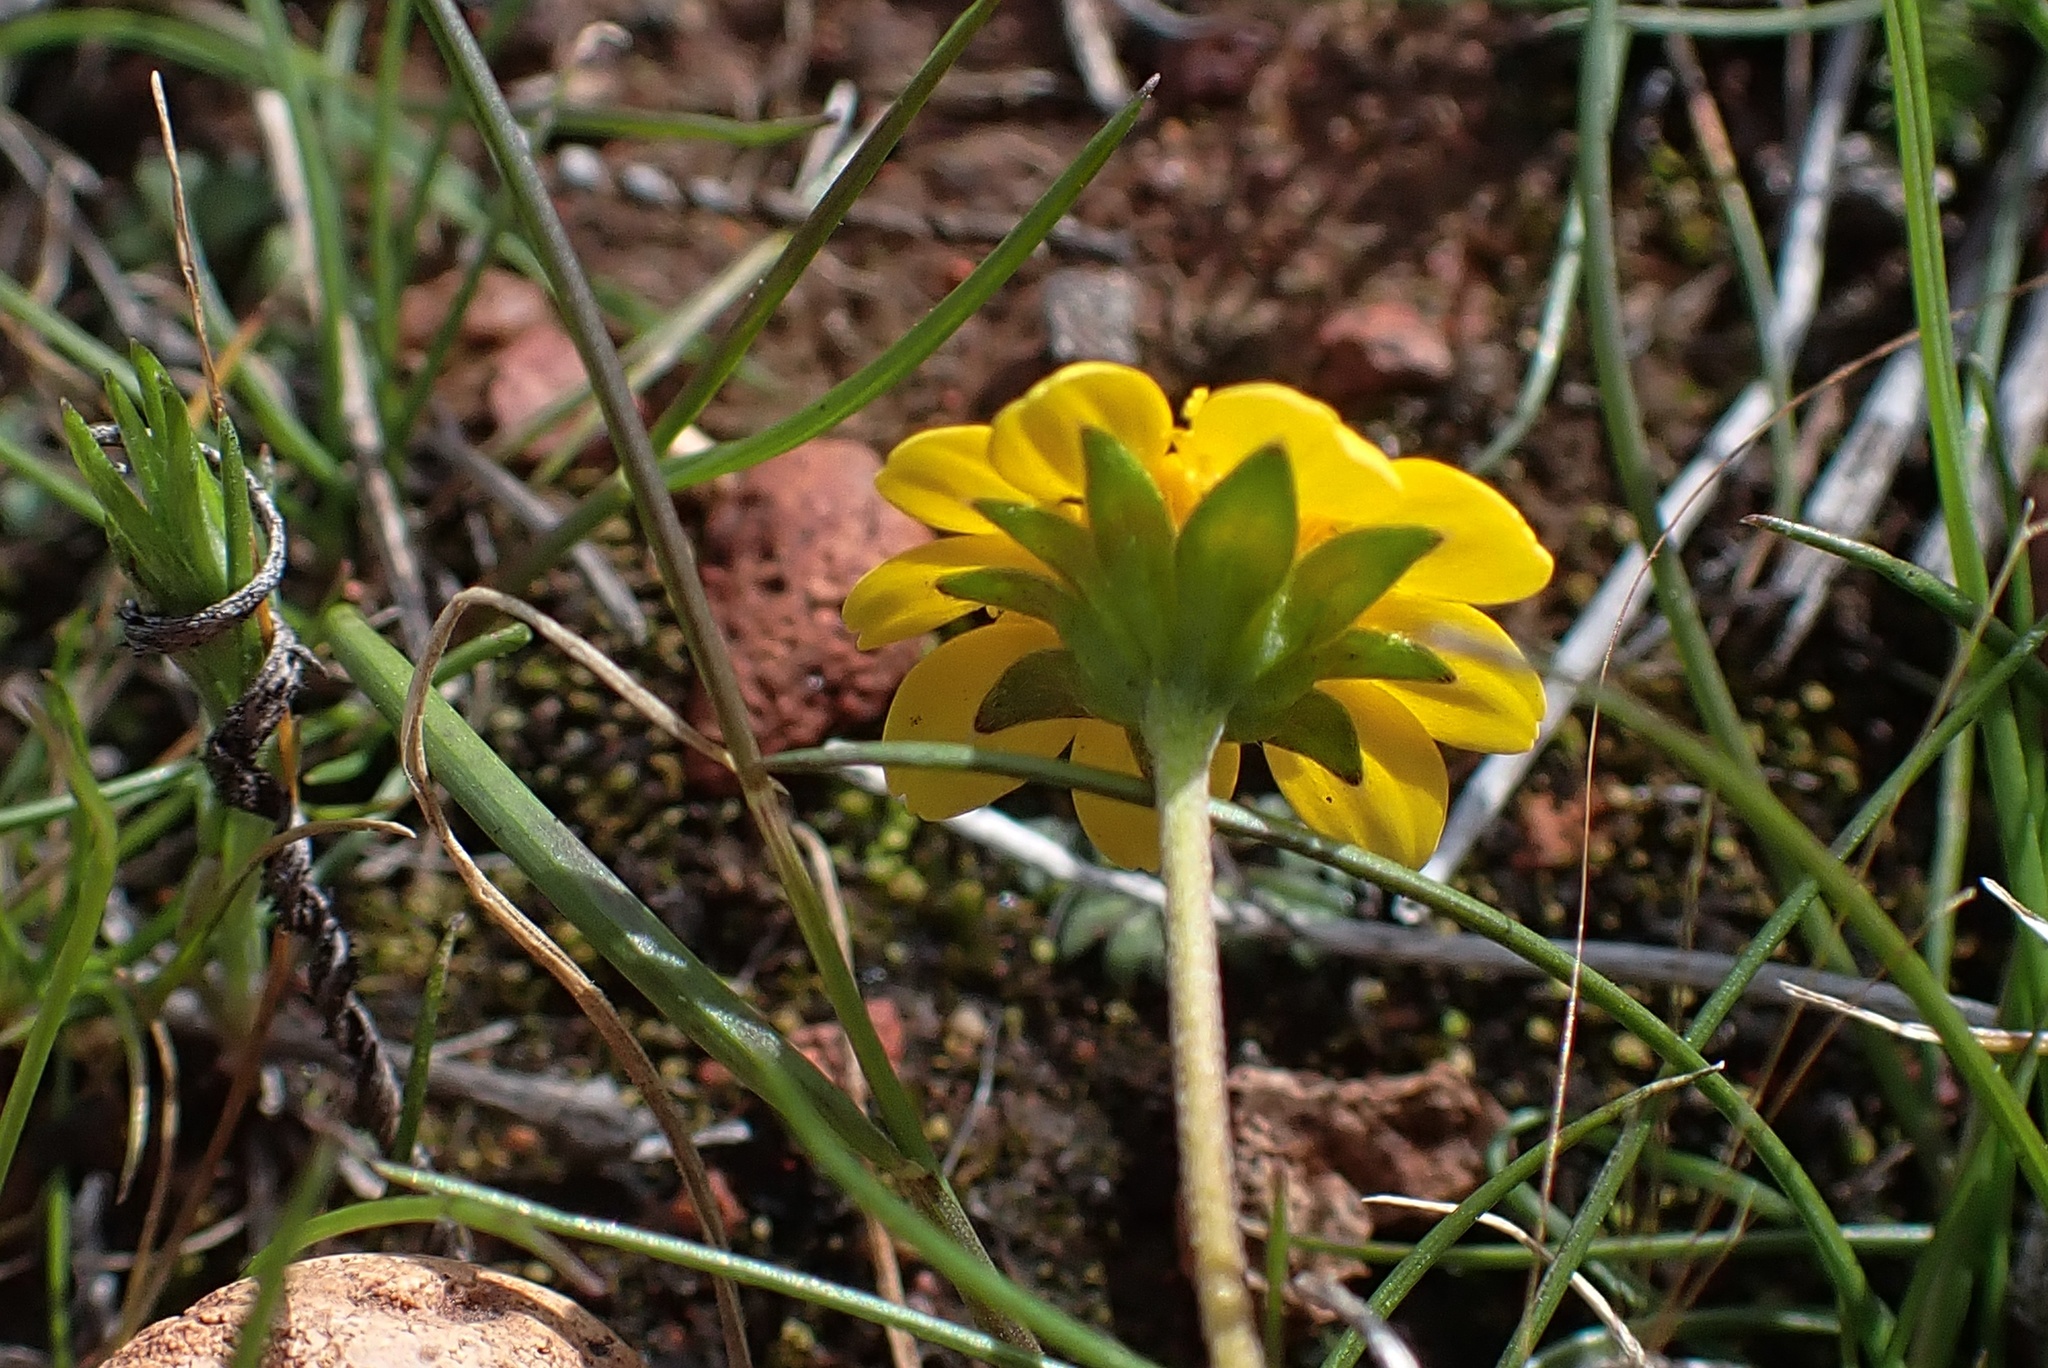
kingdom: Plantae
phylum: Tracheophyta
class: Magnoliopsida
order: Asterales
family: Asteraceae
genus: Lasthenia
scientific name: Lasthenia gracilis
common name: Common goldfields
